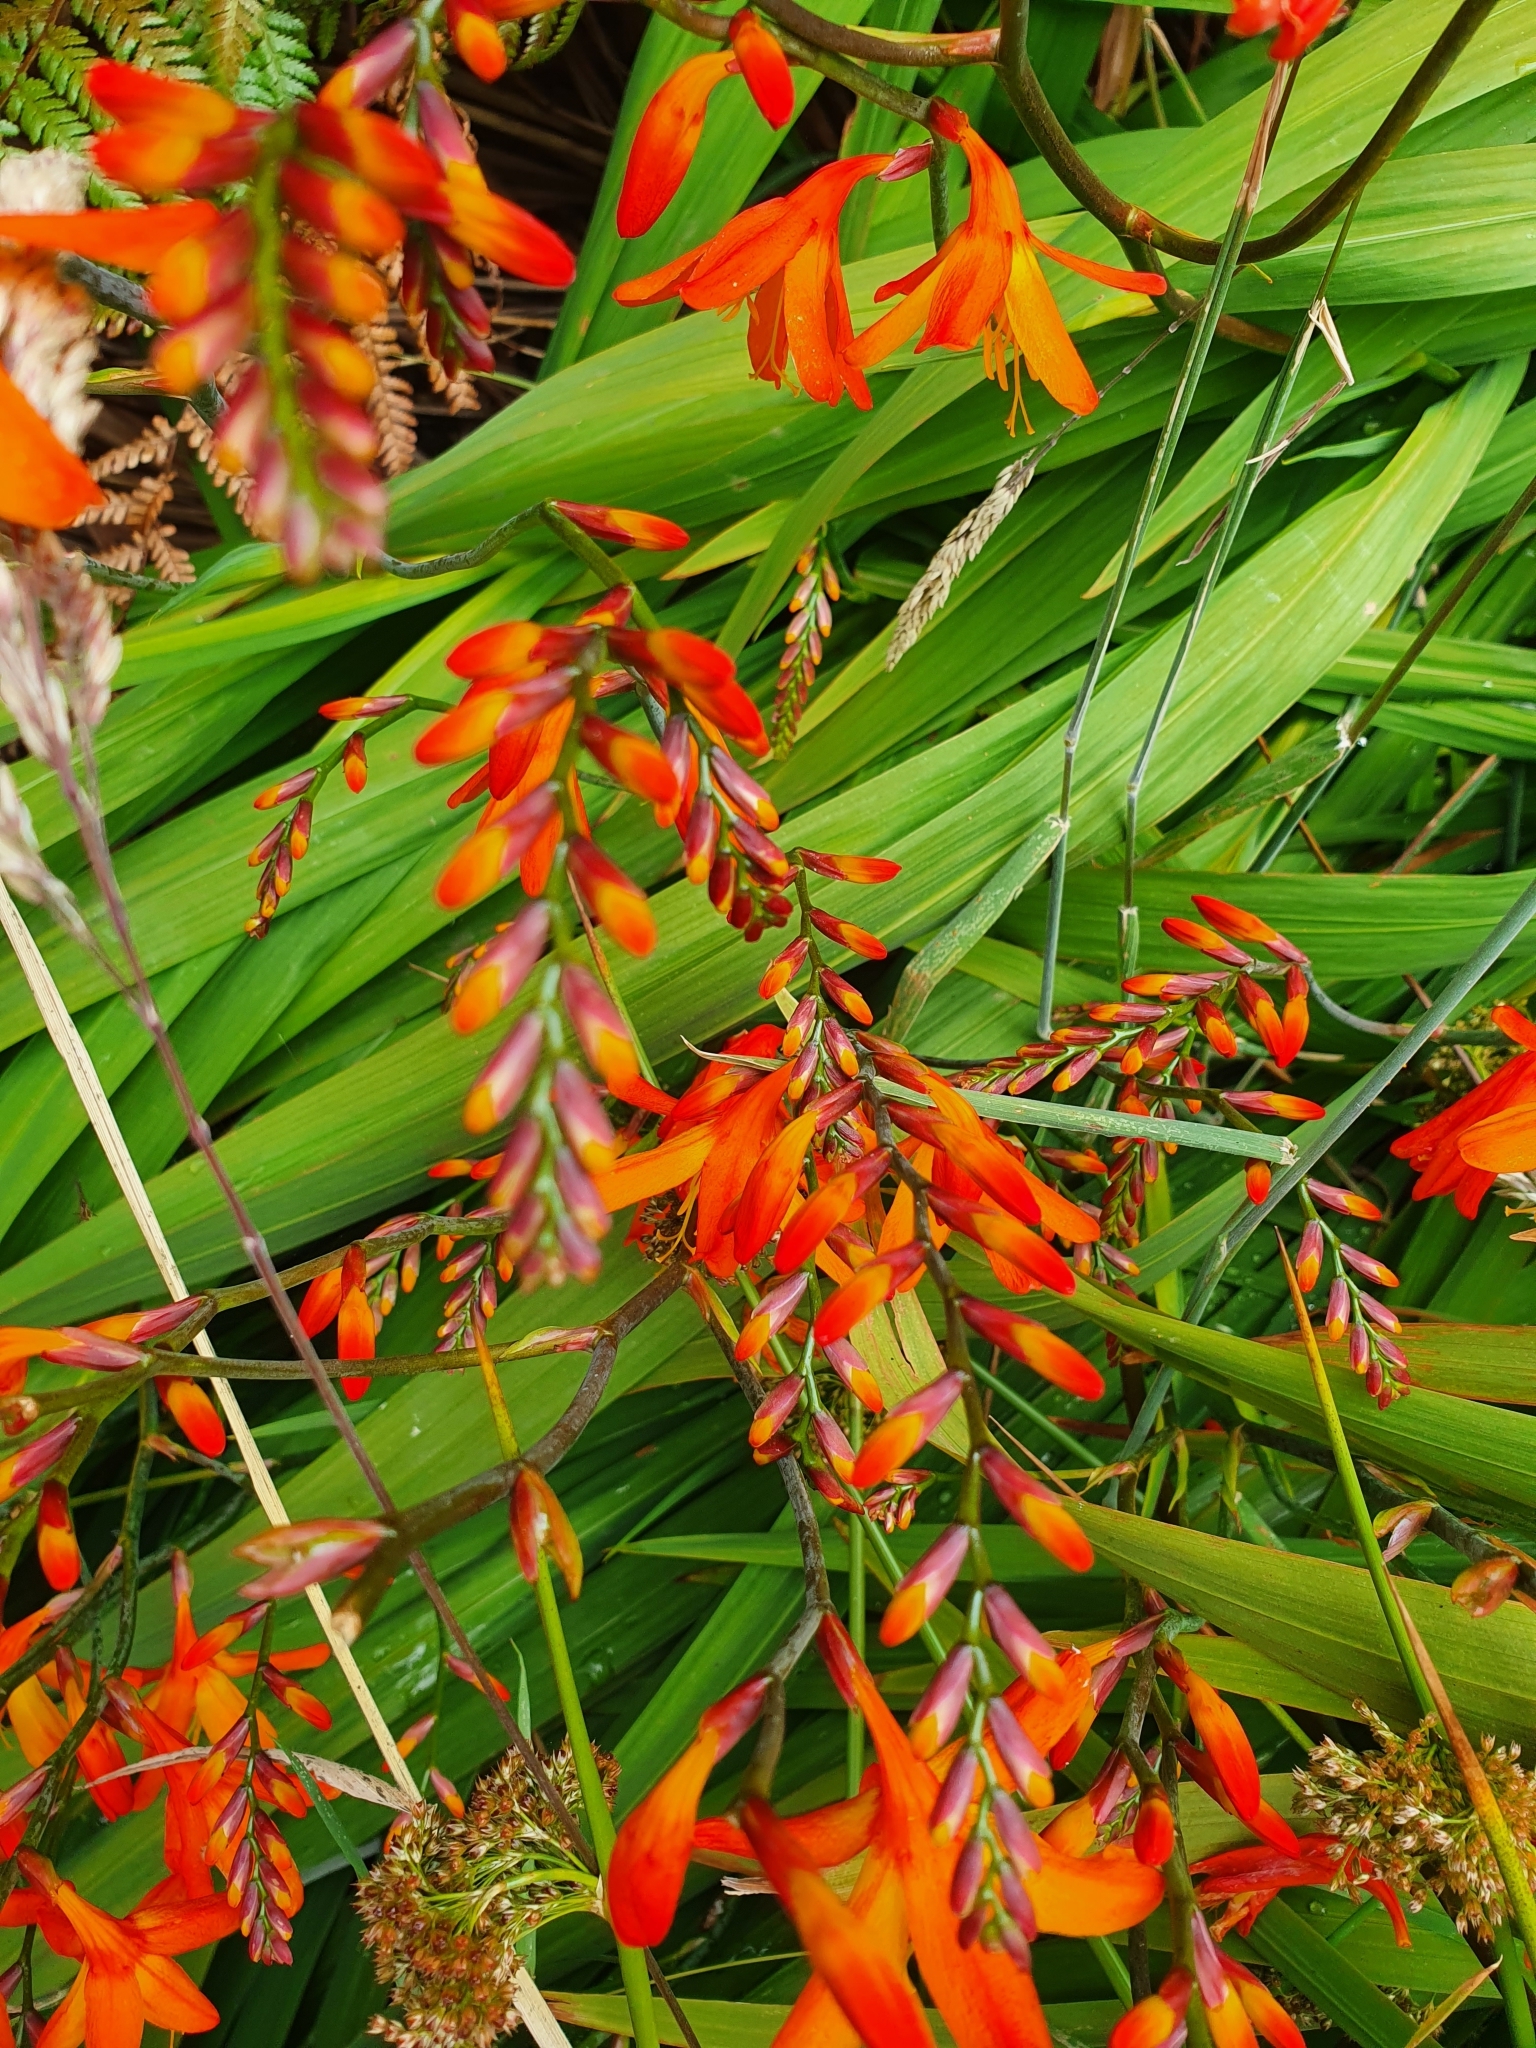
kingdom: Plantae
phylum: Tracheophyta
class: Liliopsida
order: Asparagales
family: Iridaceae
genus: Crocosmia
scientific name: Crocosmia crocosmiiflora
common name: Montbretia
